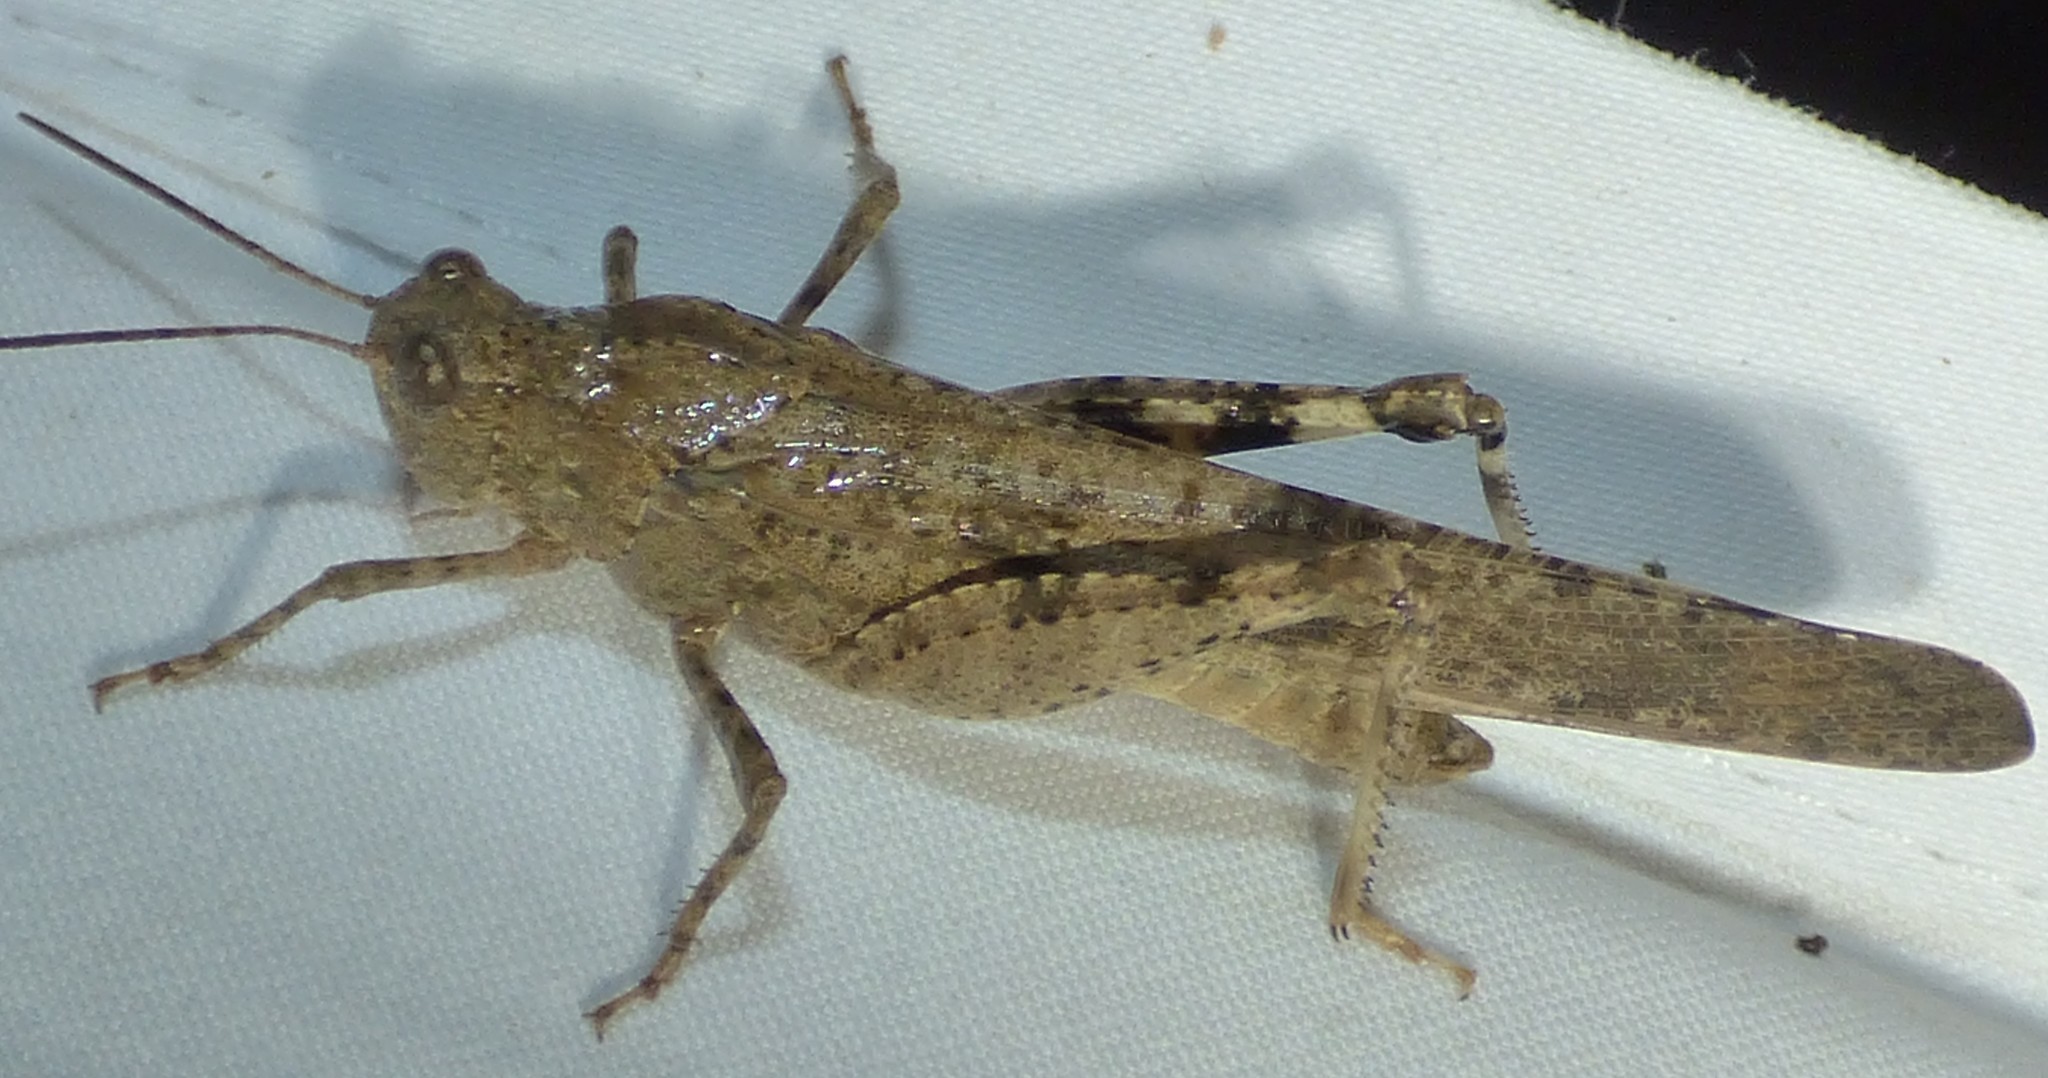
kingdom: Animalia
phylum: Arthropoda
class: Insecta
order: Orthoptera
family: Acrididae
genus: Dissosteira
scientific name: Dissosteira carolina
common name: Carolina grasshopper
